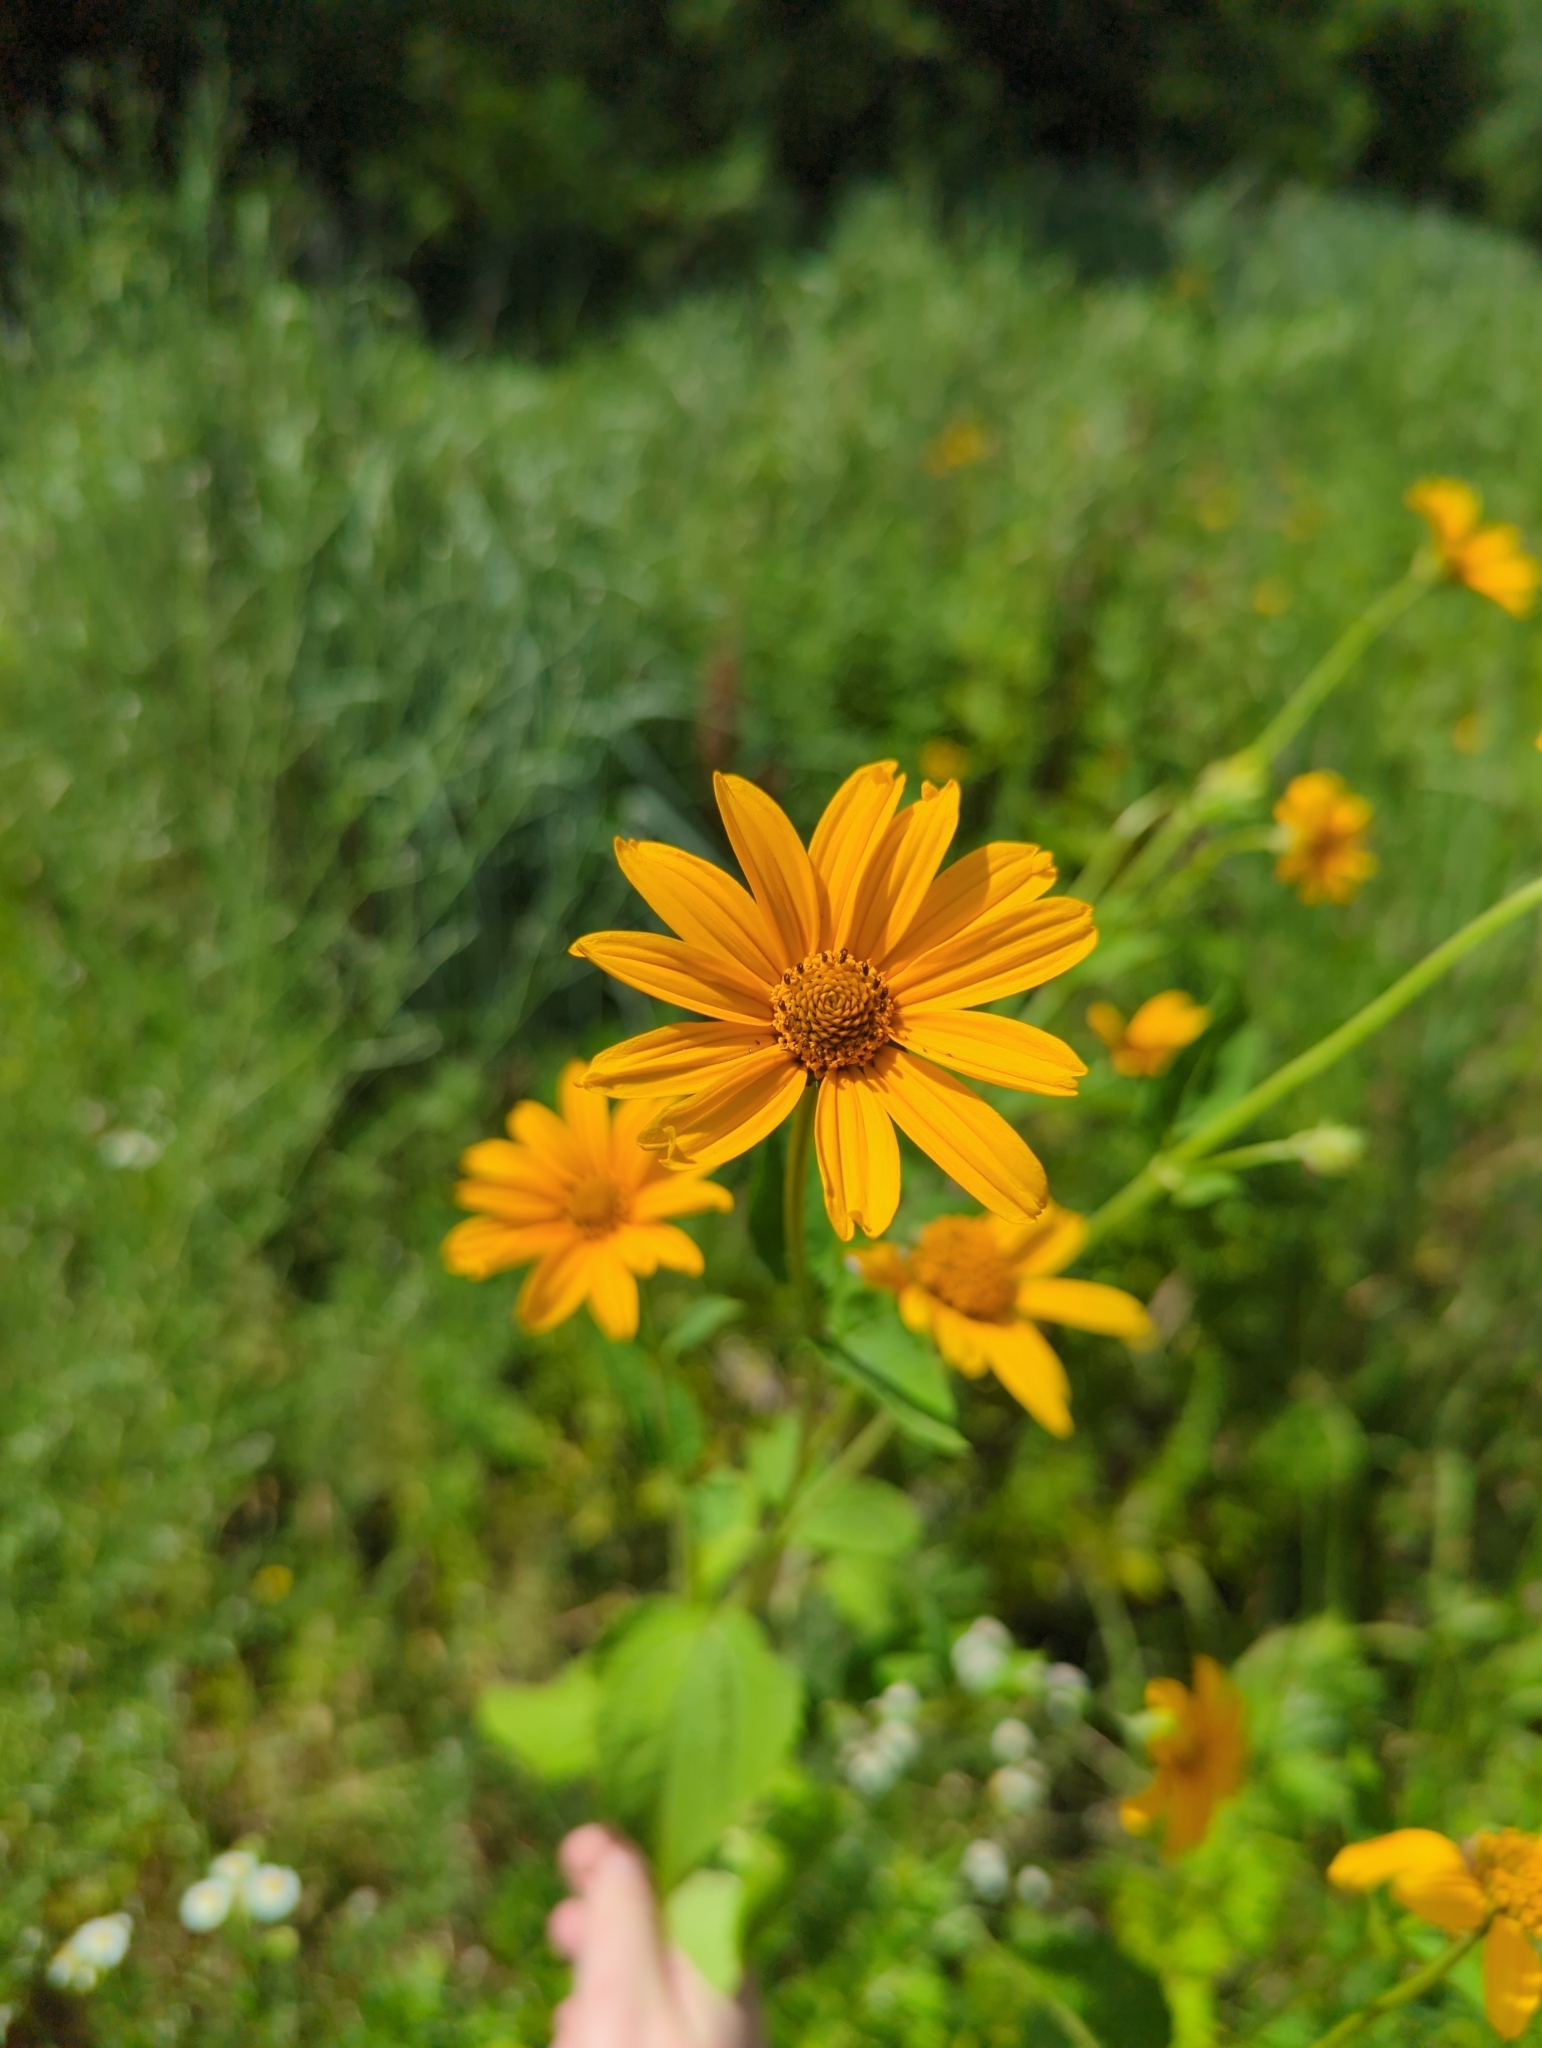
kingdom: Plantae
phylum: Tracheophyta
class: Magnoliopsida
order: Asterales
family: Asteraceae
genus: Heliopsis
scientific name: Heliopsis helianthoides
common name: False sunflower
